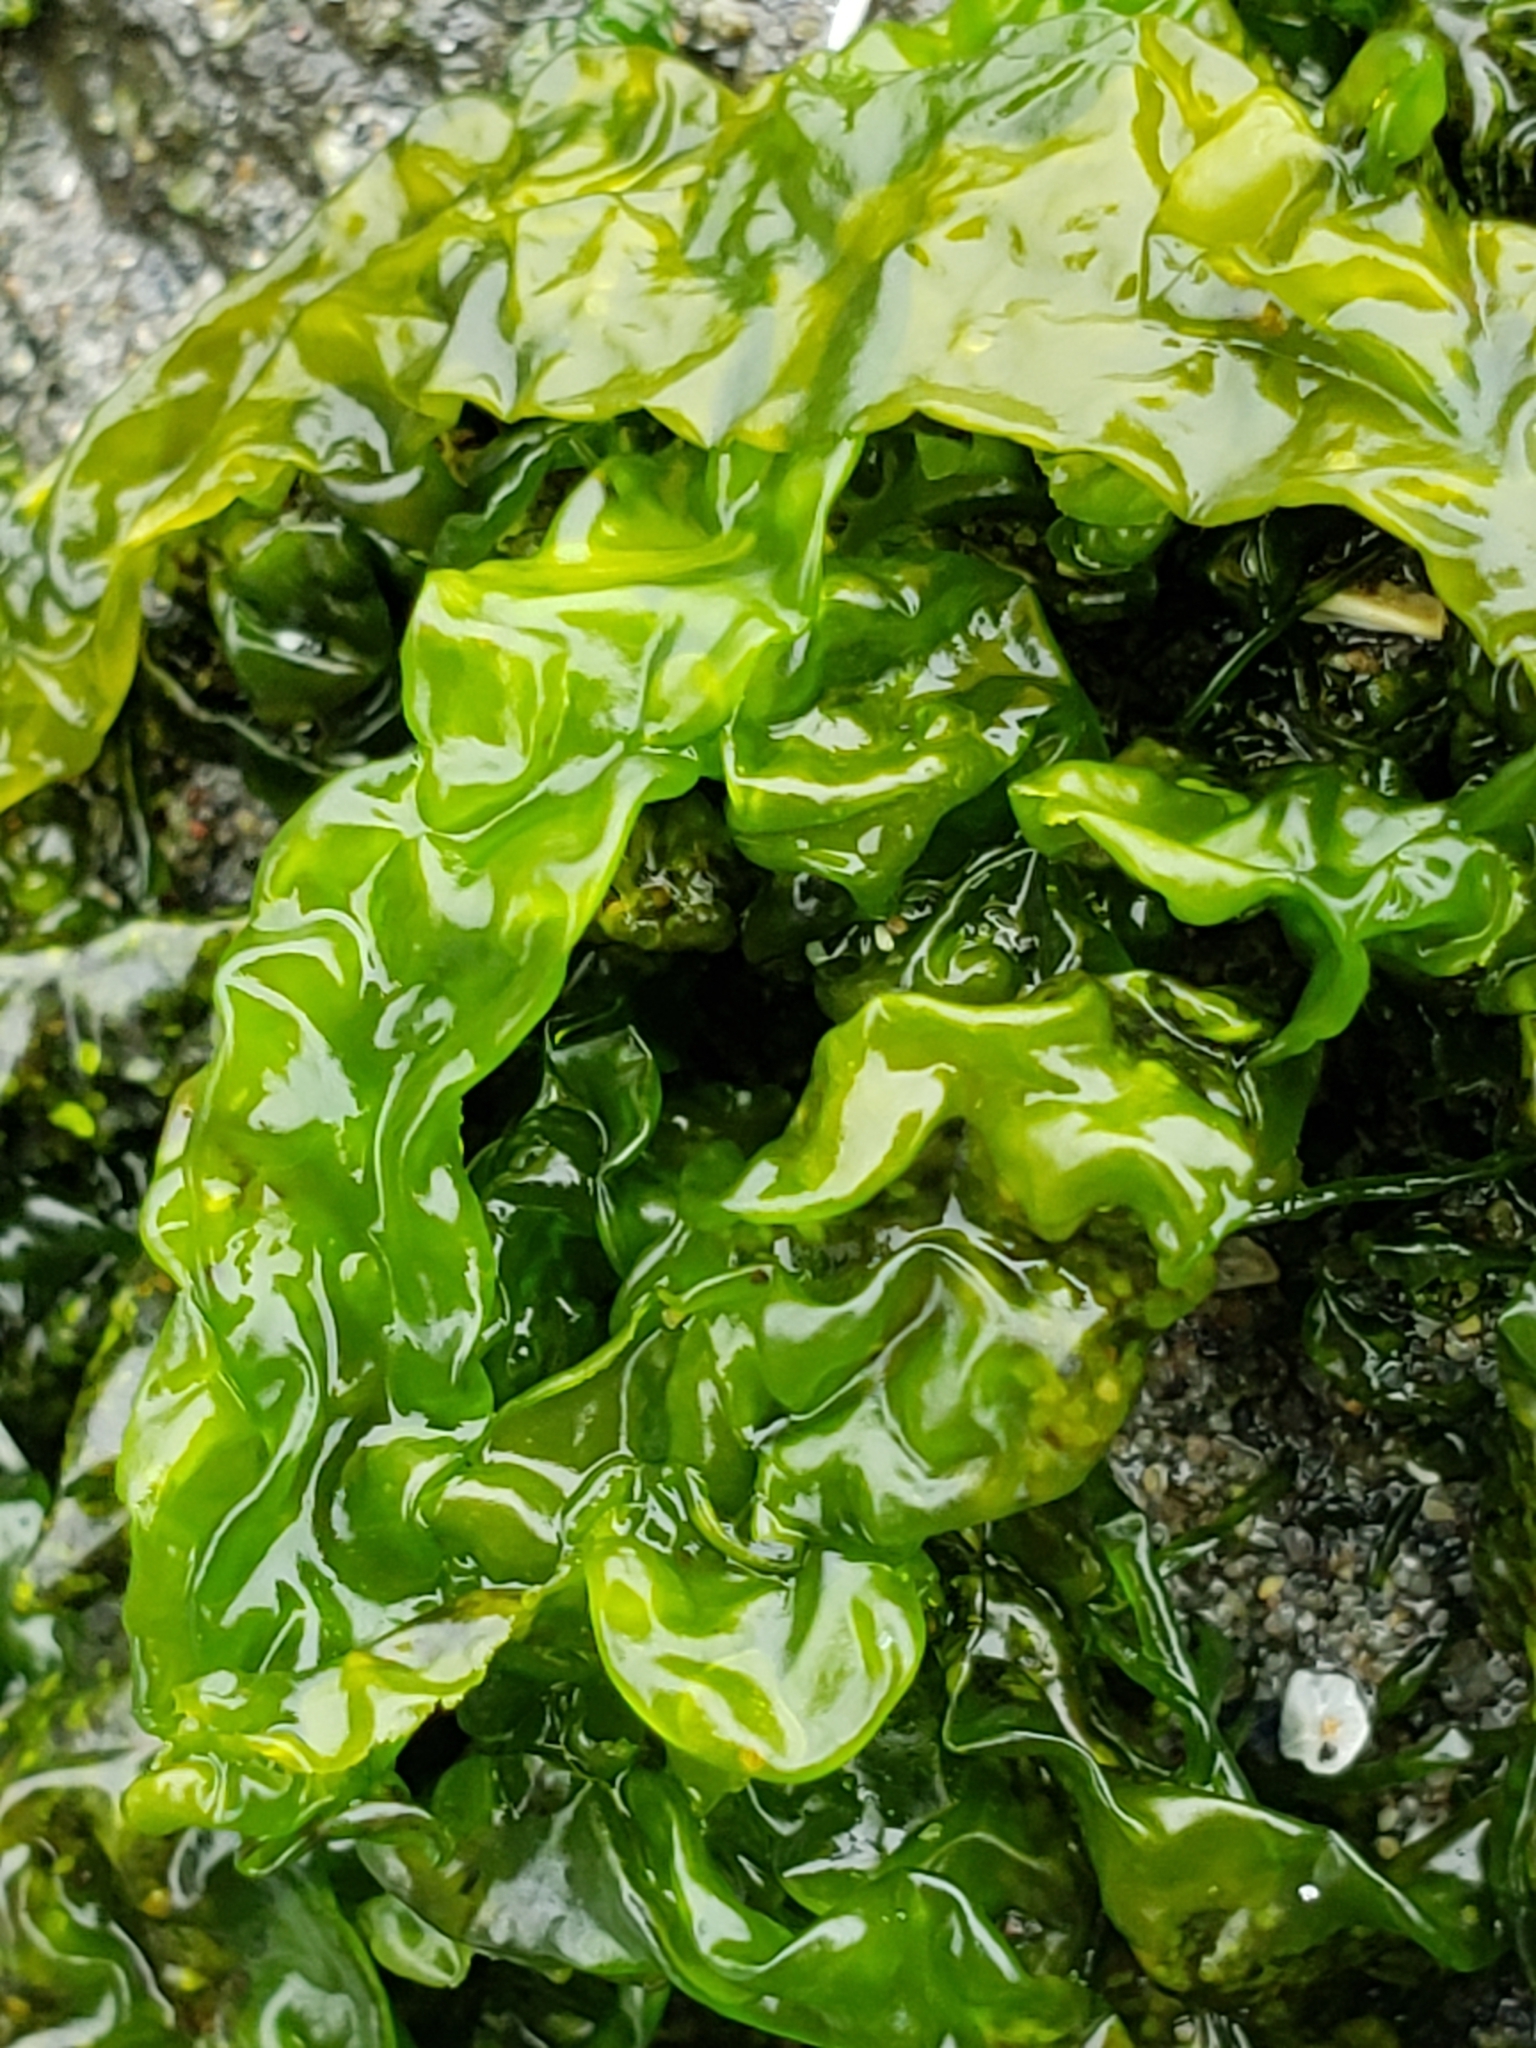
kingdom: Plantae
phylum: Chlorophyta
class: Ulvophyceae
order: Ulvales
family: Ulvaceae
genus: Ulva
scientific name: Ulva intestinalis
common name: Gut weed
